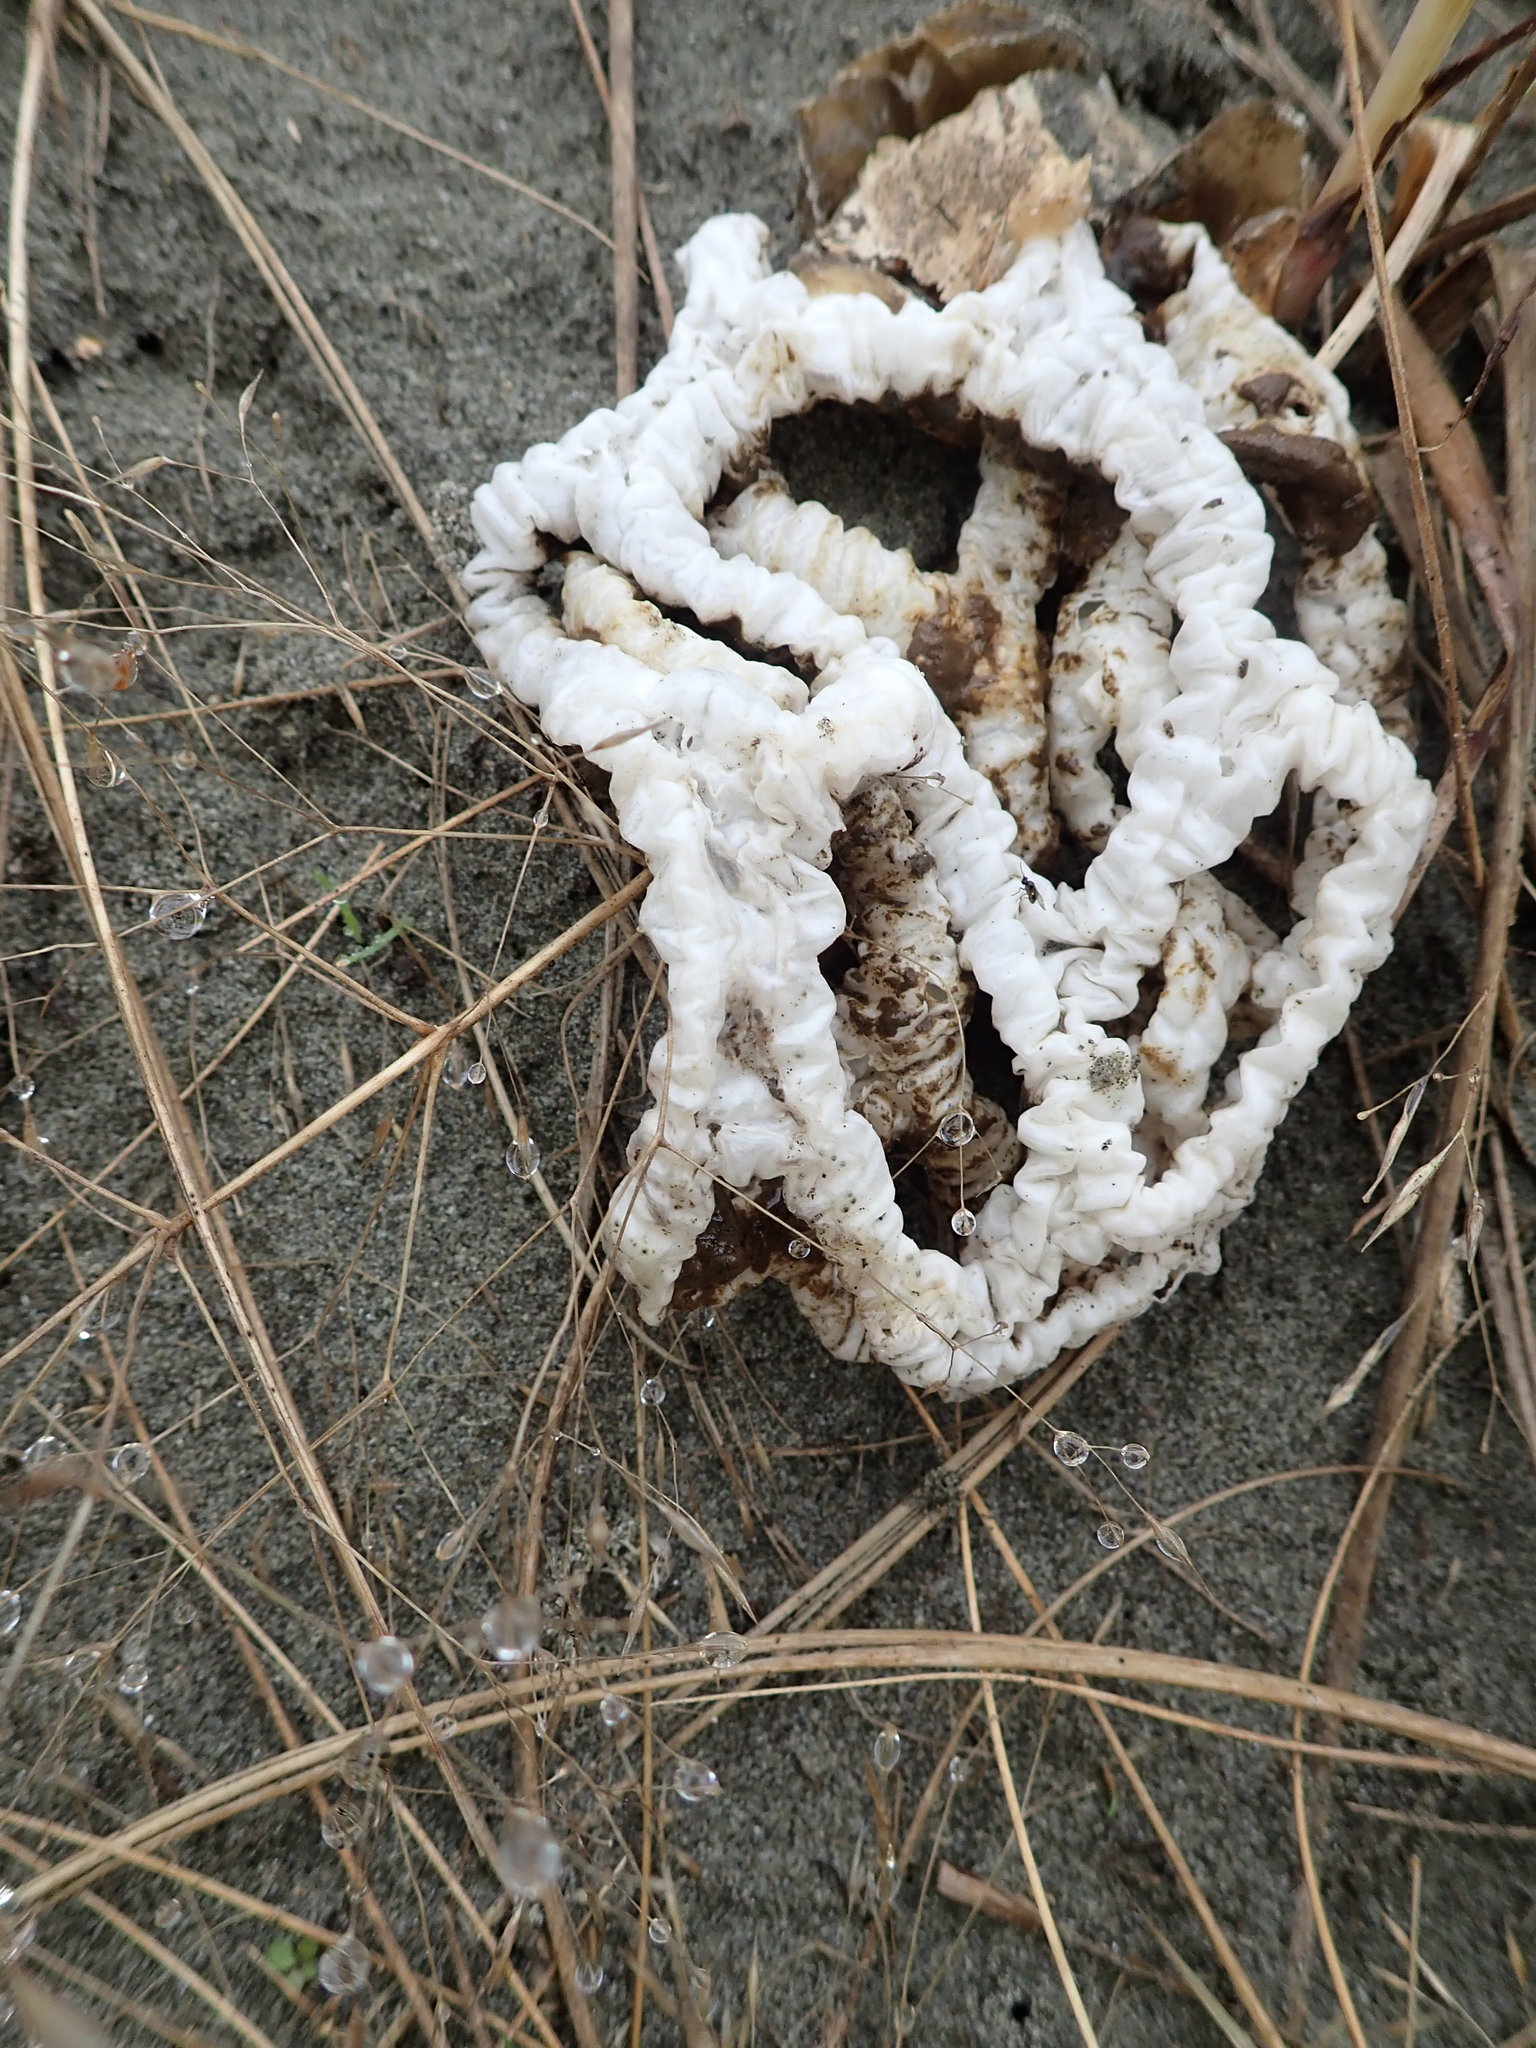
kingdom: Fungi
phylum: Basidiomycota
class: Agaricomycetes
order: Phallales
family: Phallaceae
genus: Ileodictyon
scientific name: Ileodictyon cibarium
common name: Basket fungus
